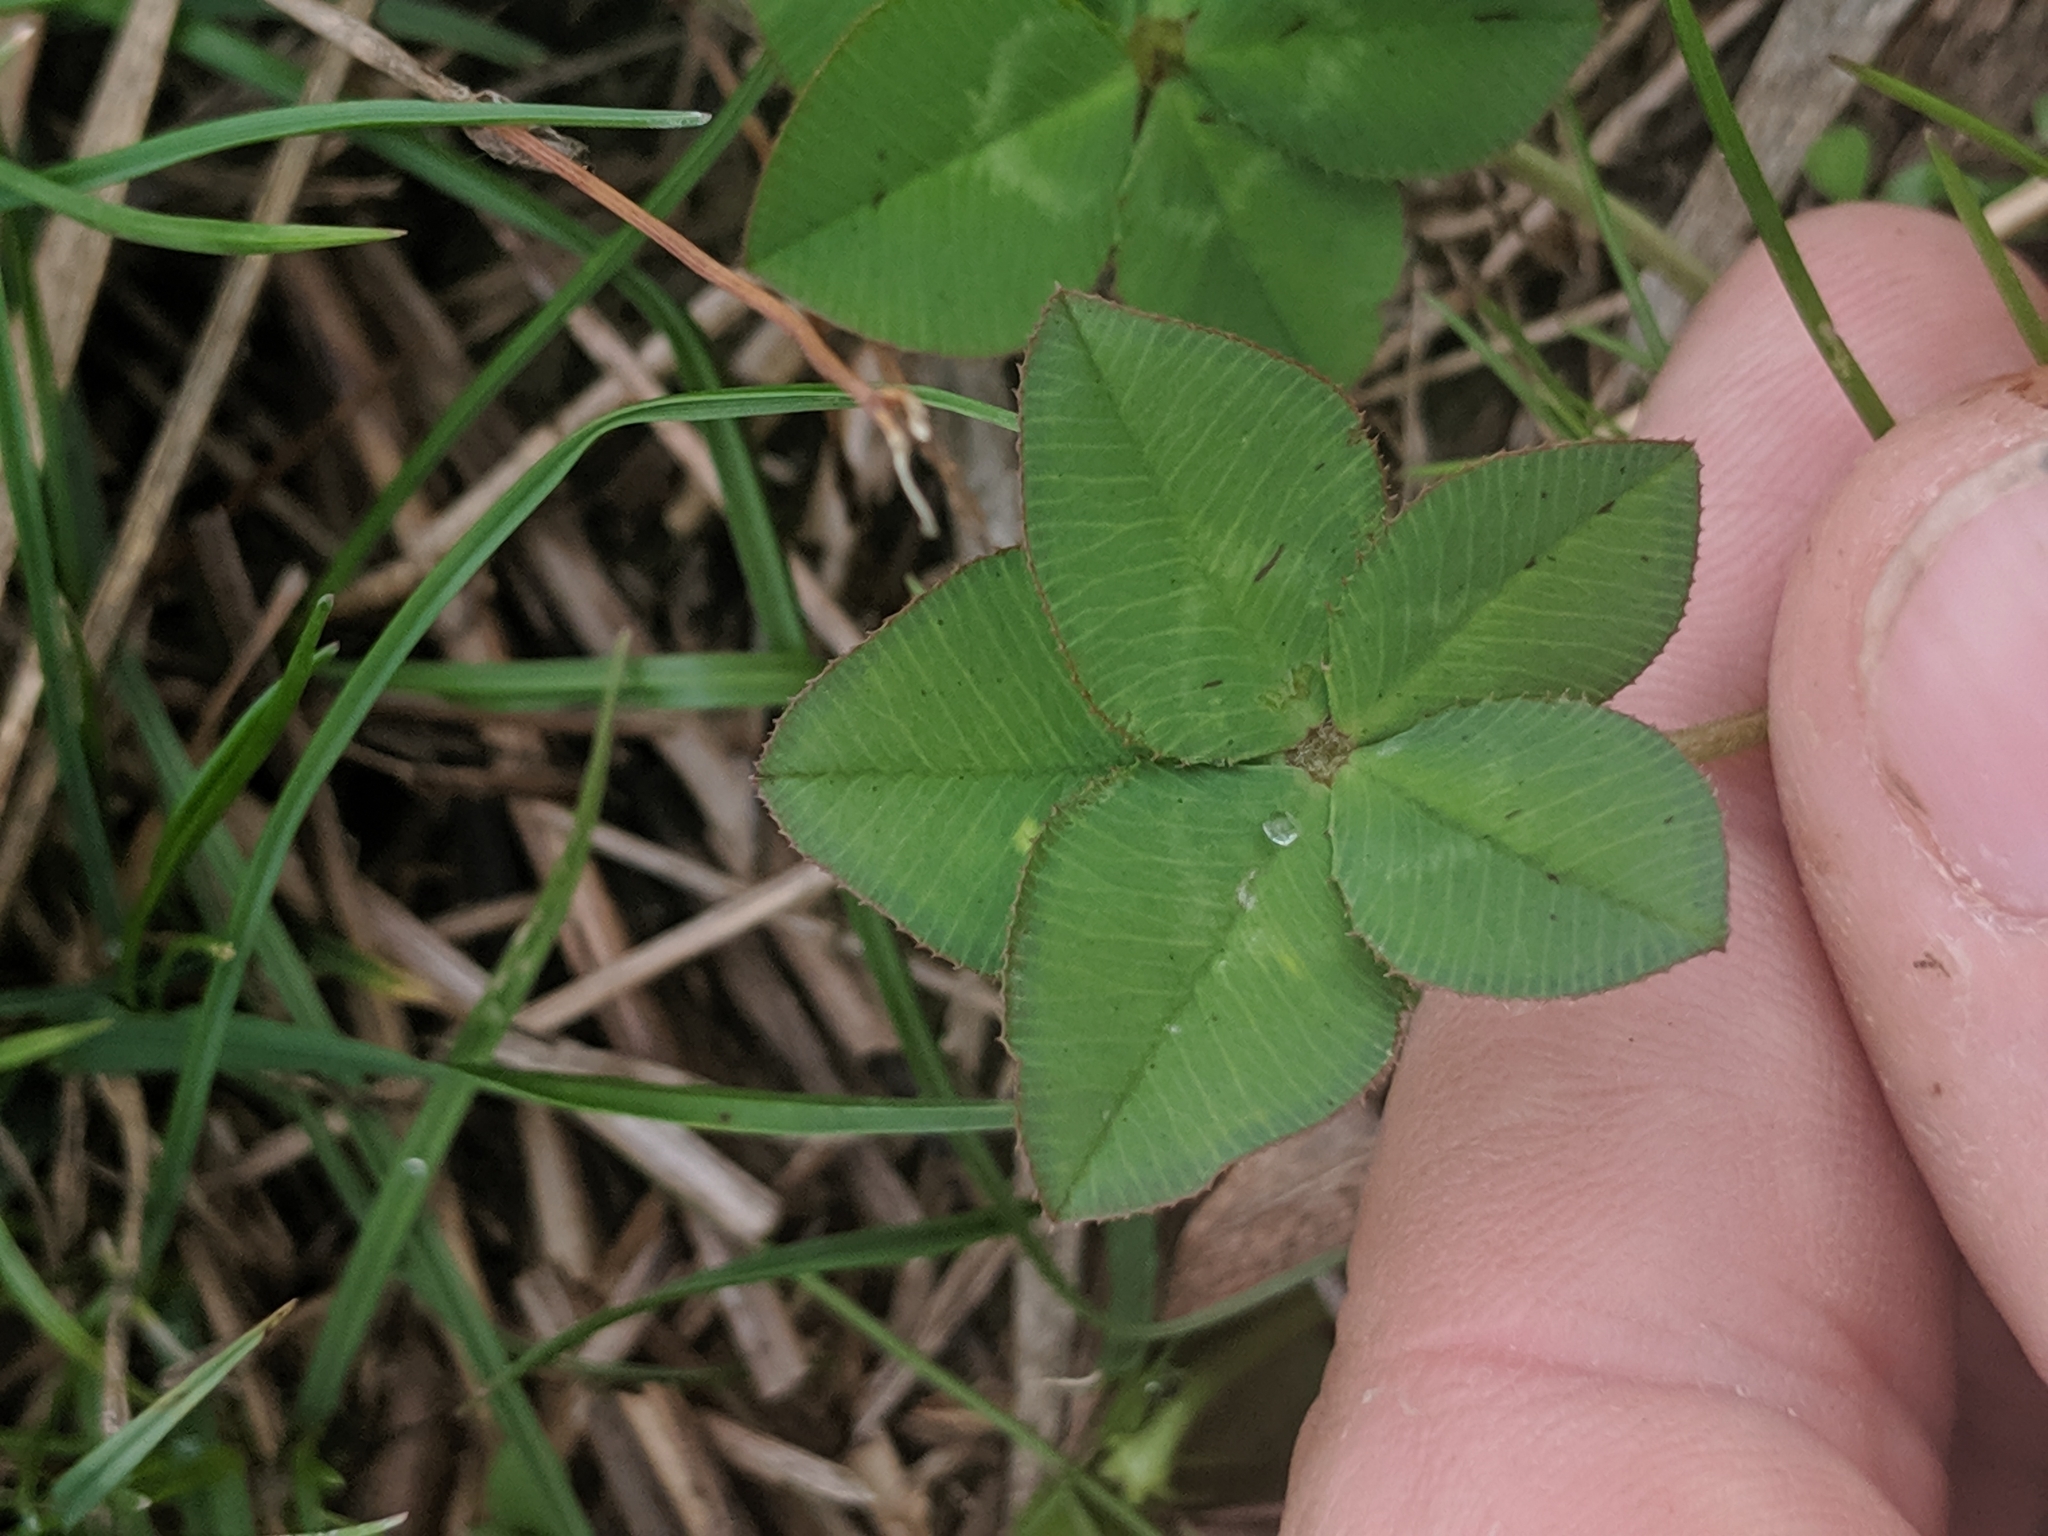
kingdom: Plantae
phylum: Tracheophyta
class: Magnoliopsida
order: Fabales
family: Fabaceae
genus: Trifolium
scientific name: Trifolium repens
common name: White clover
